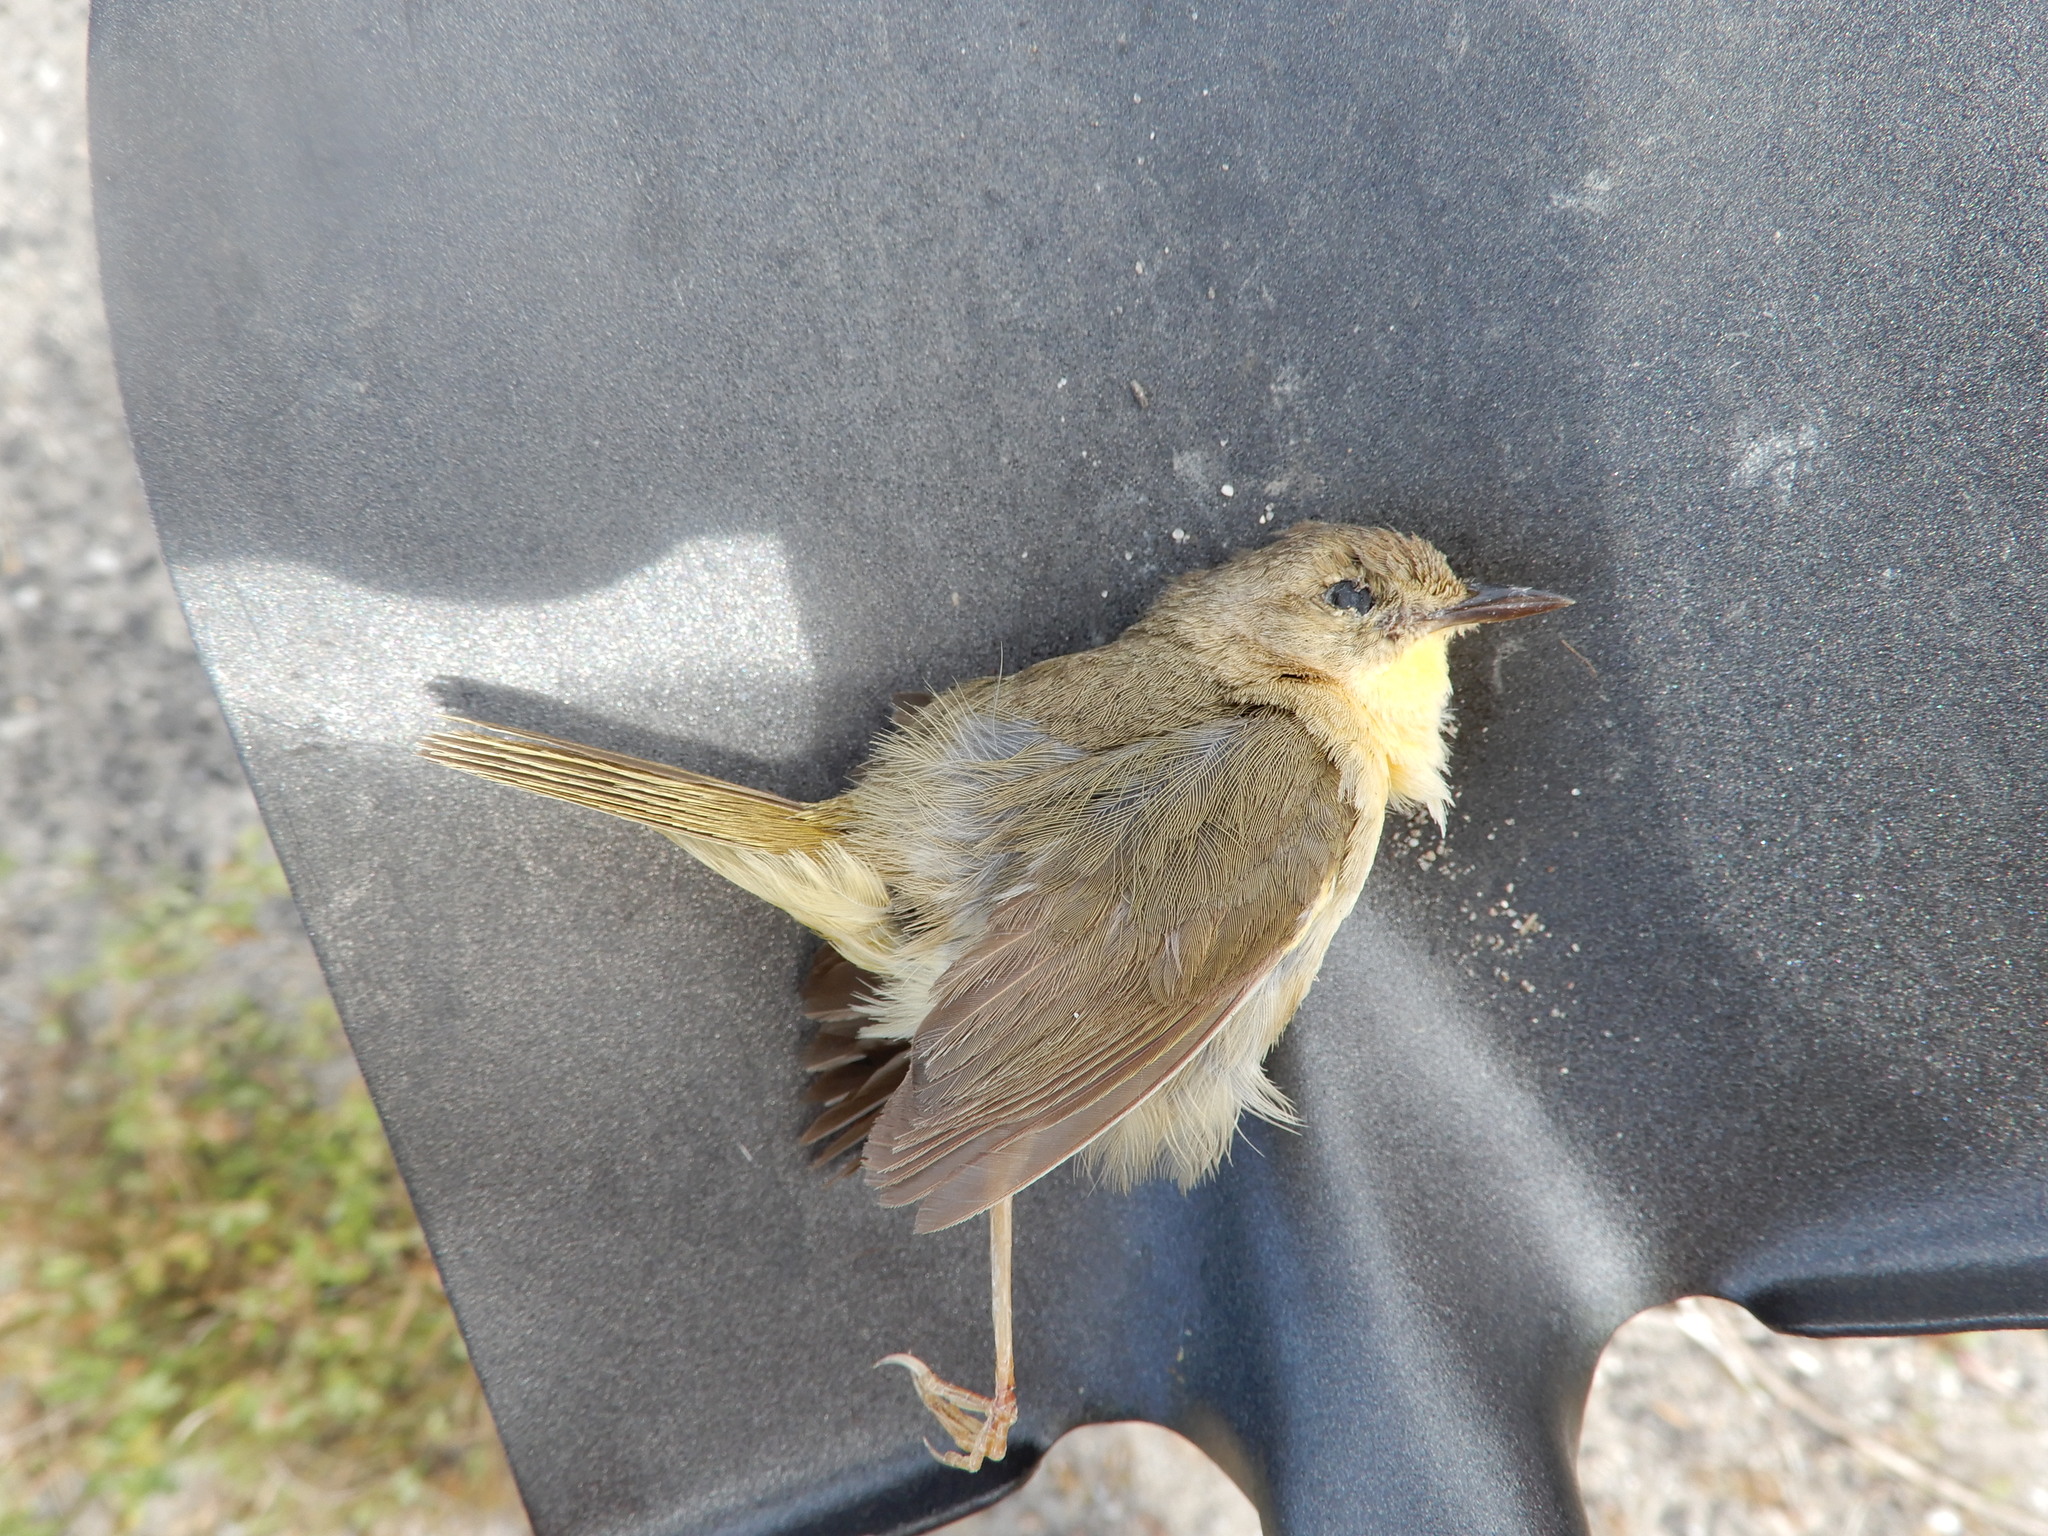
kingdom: Animalia
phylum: Chordata
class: Aves
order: Passeriformes
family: Parulidae
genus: Geothlypis
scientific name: Geothlypis trichas
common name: Common yellowthroat
